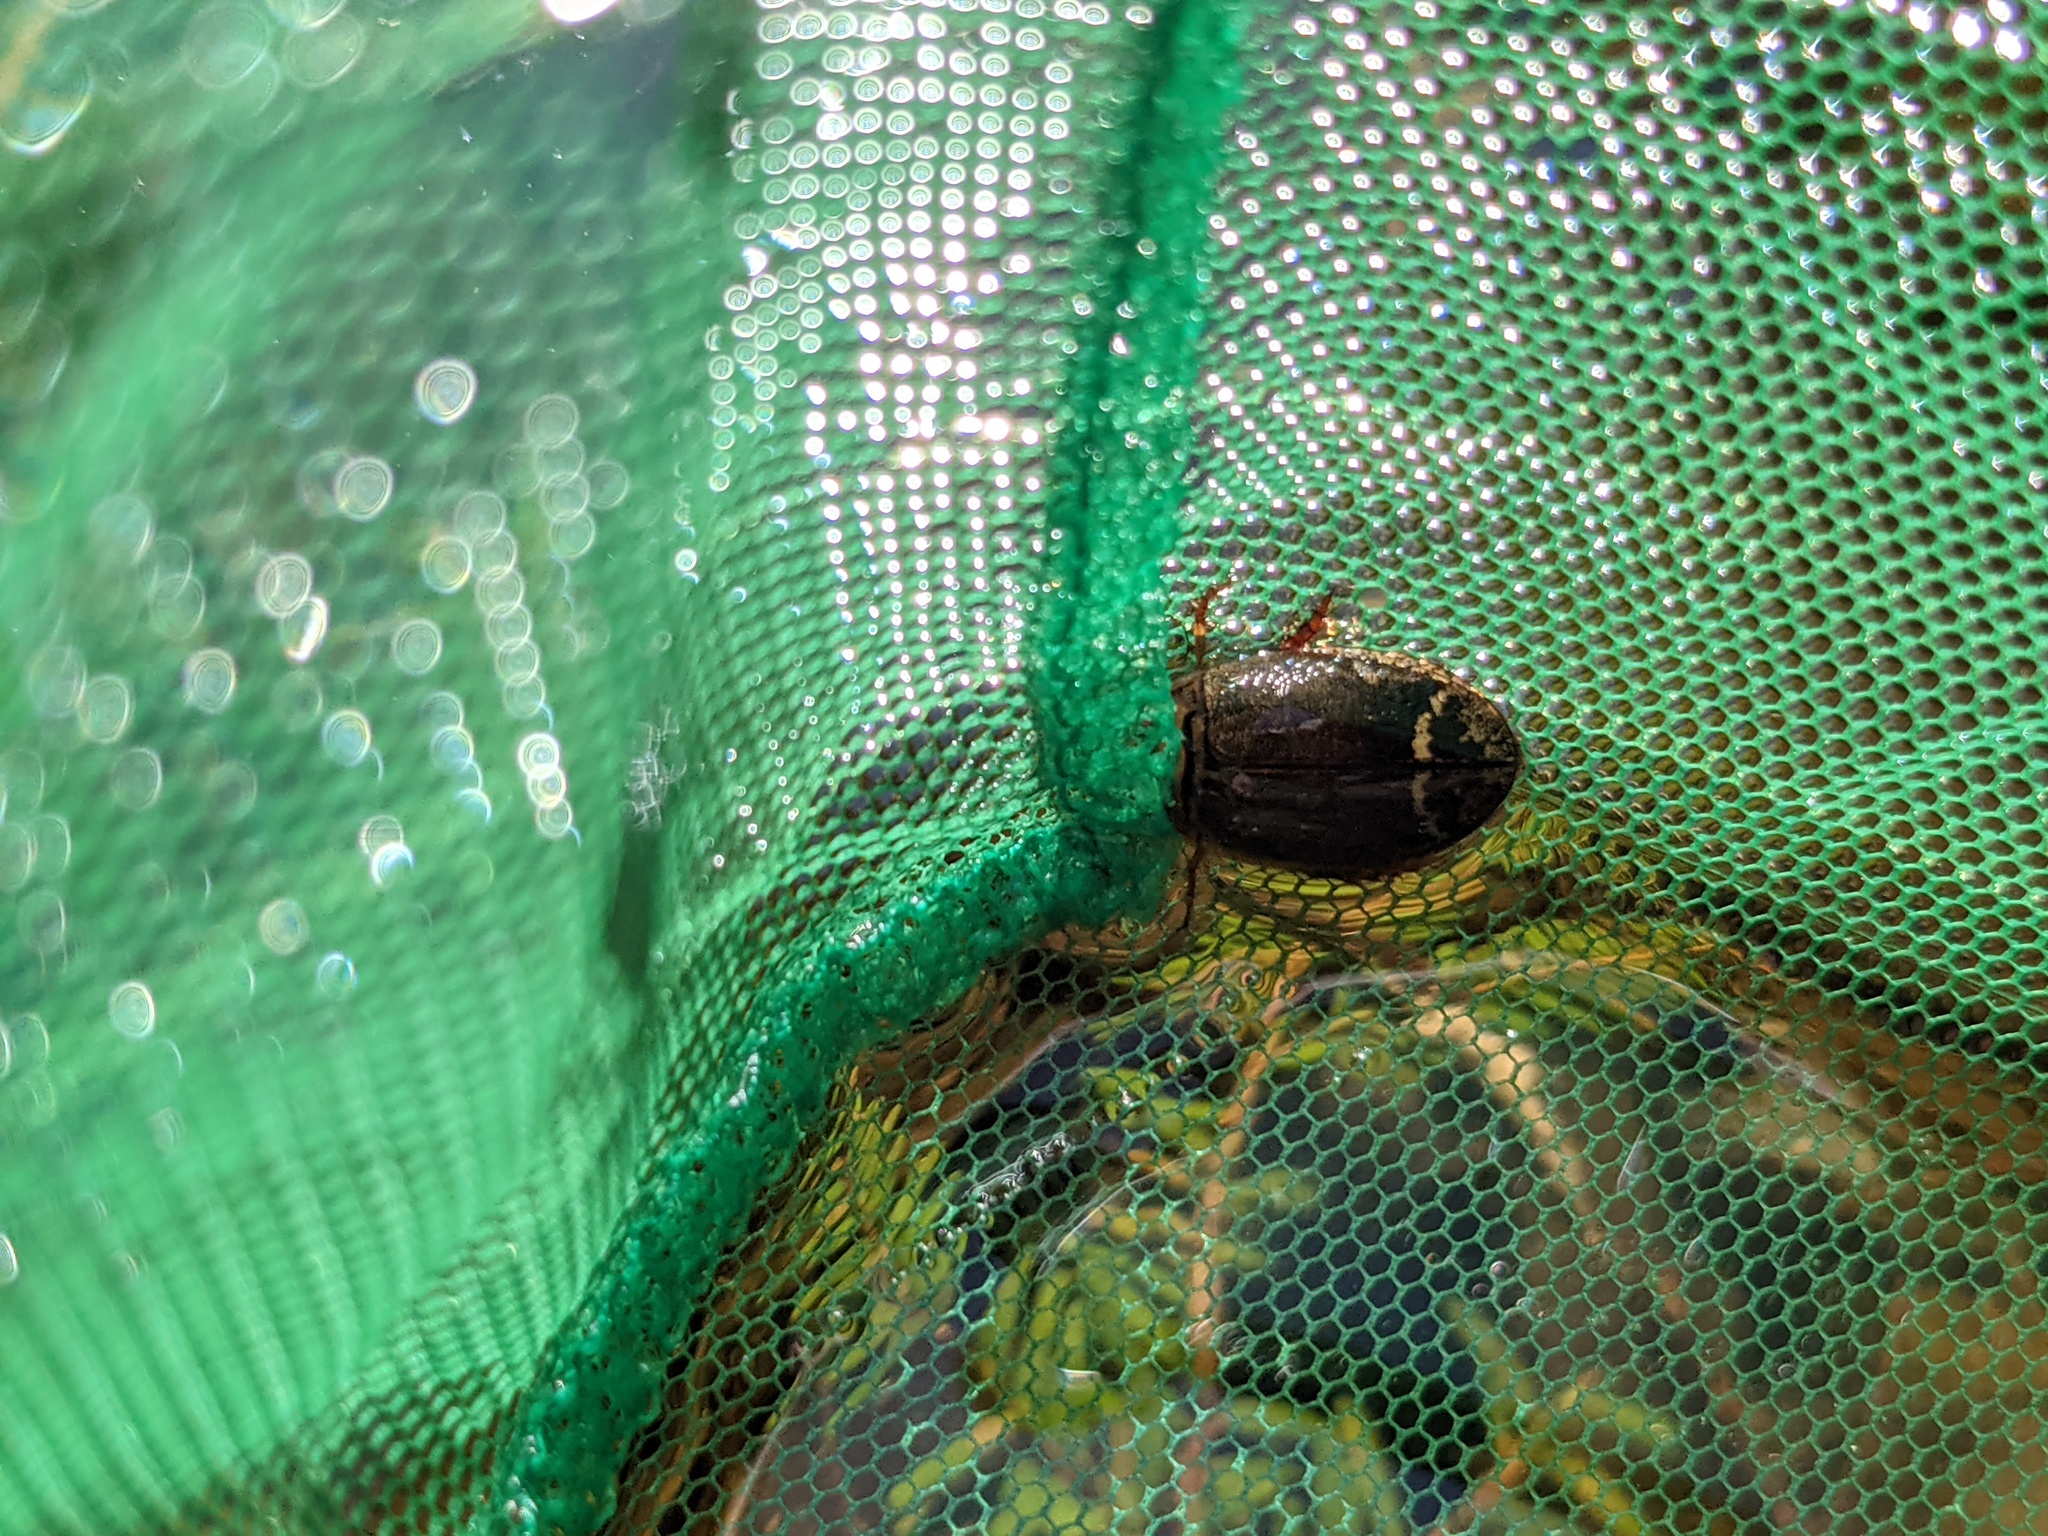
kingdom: Animalia
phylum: Arthropoda
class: Insecta
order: Coleoptera
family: Dytiscidae
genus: Acilius
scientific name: Acilius semisulcatus
